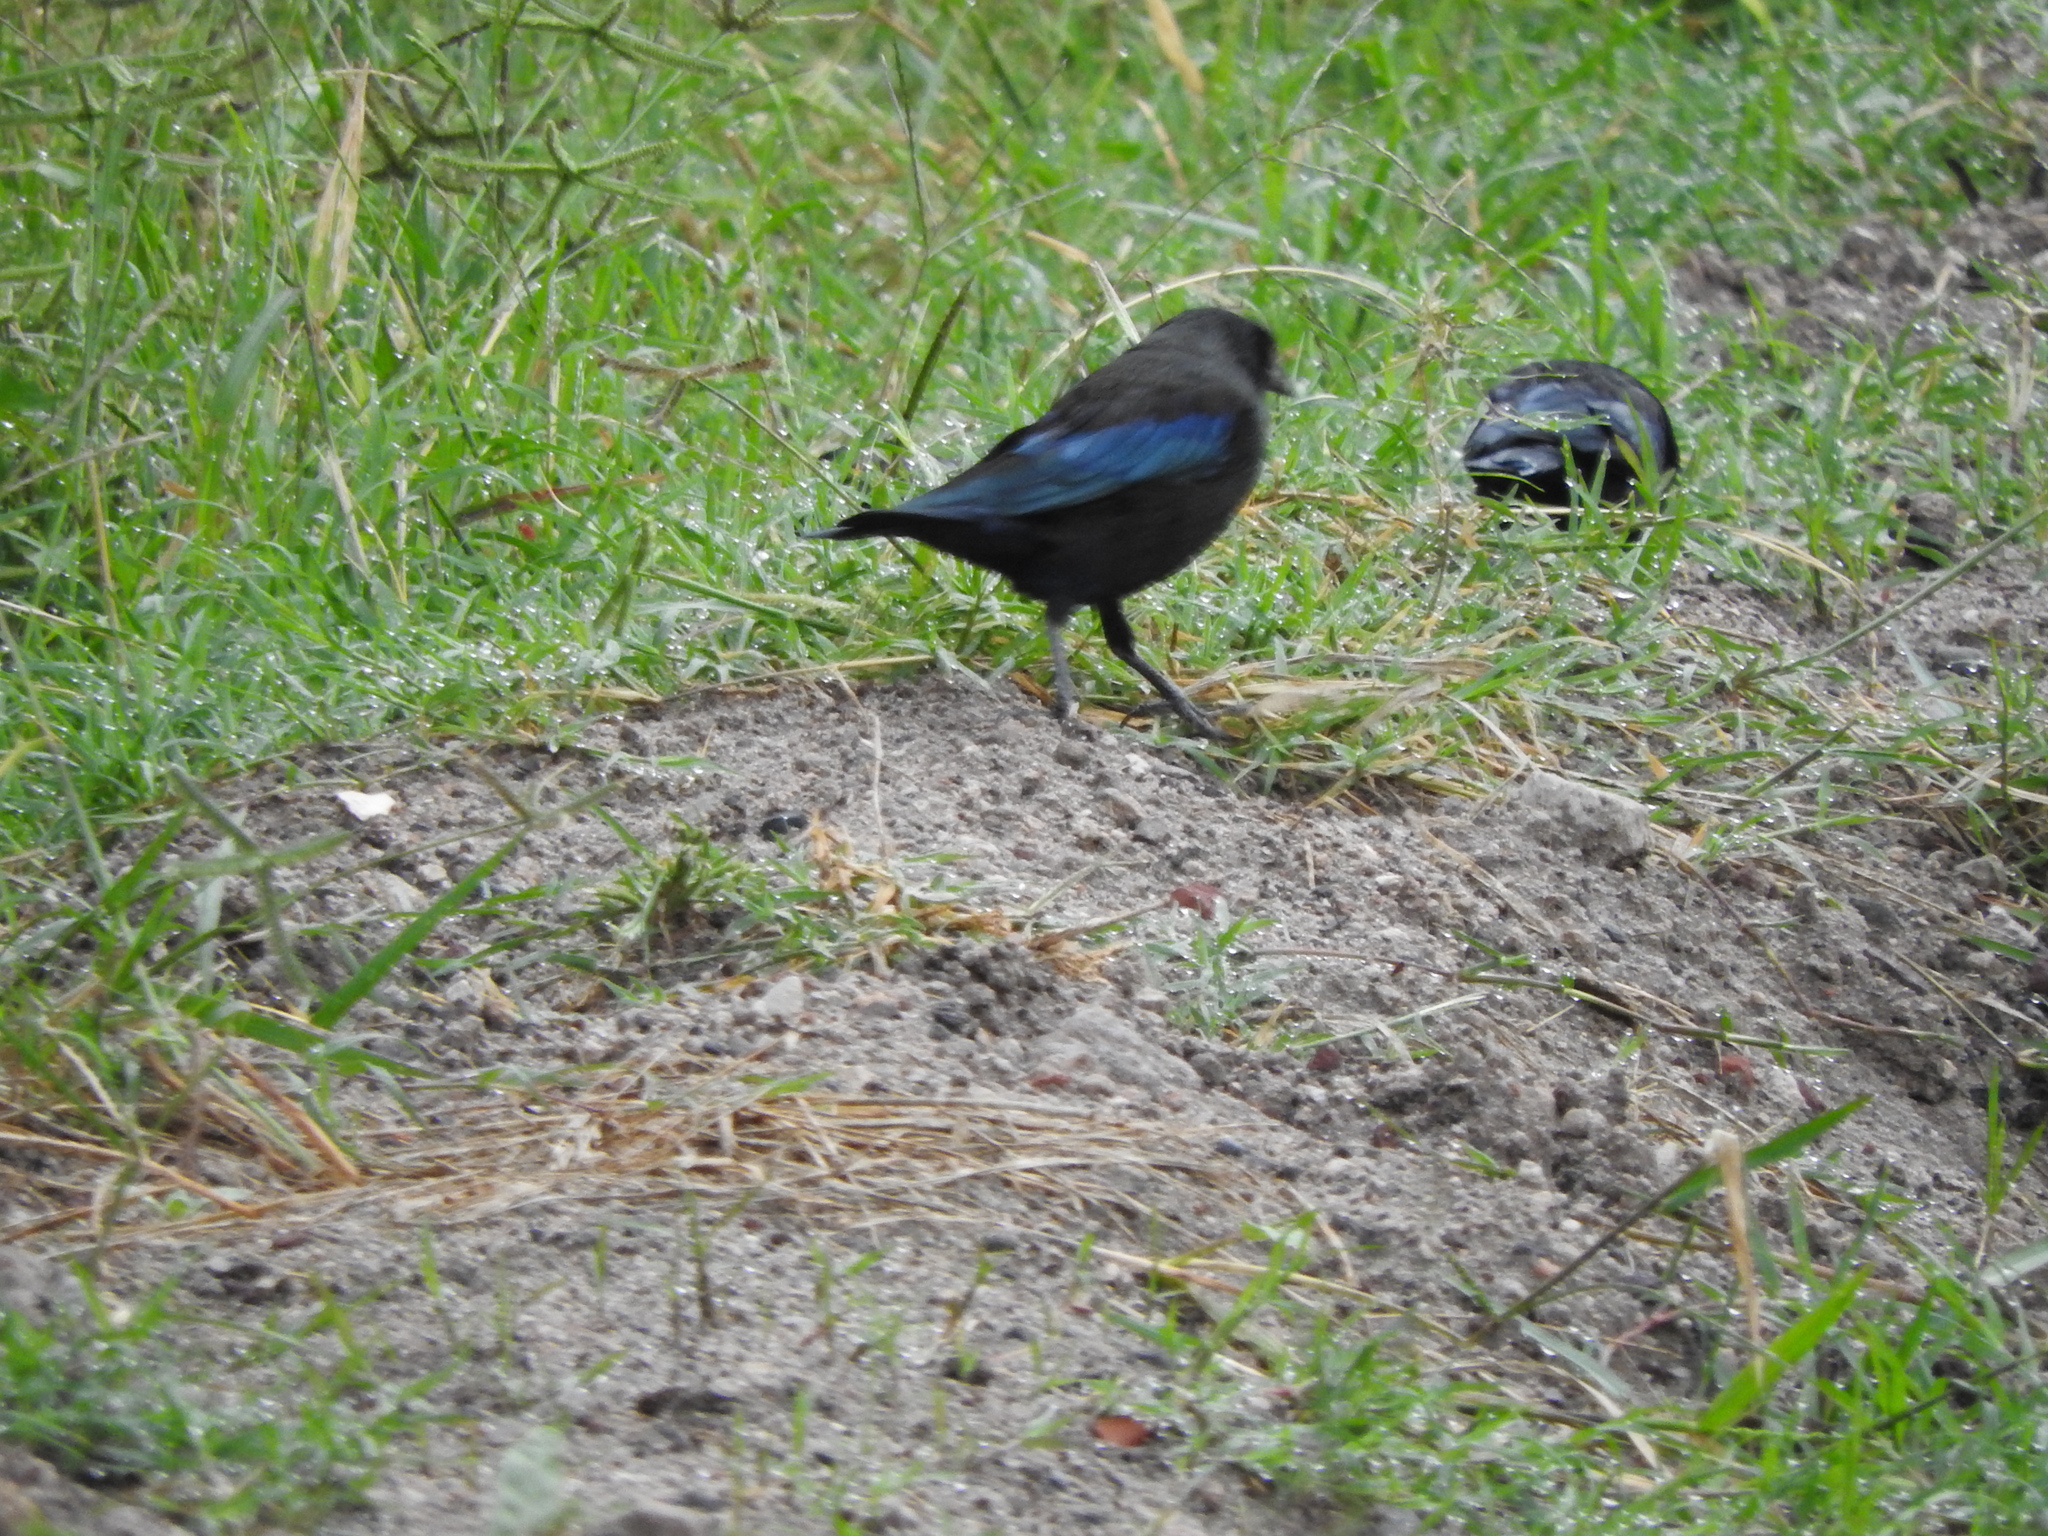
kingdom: Animalia
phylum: Chordata
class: Aves
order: Passeriformes
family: Icteridae
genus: Molothrus
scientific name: Molothrus aeneus
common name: Bronzed cowbird
